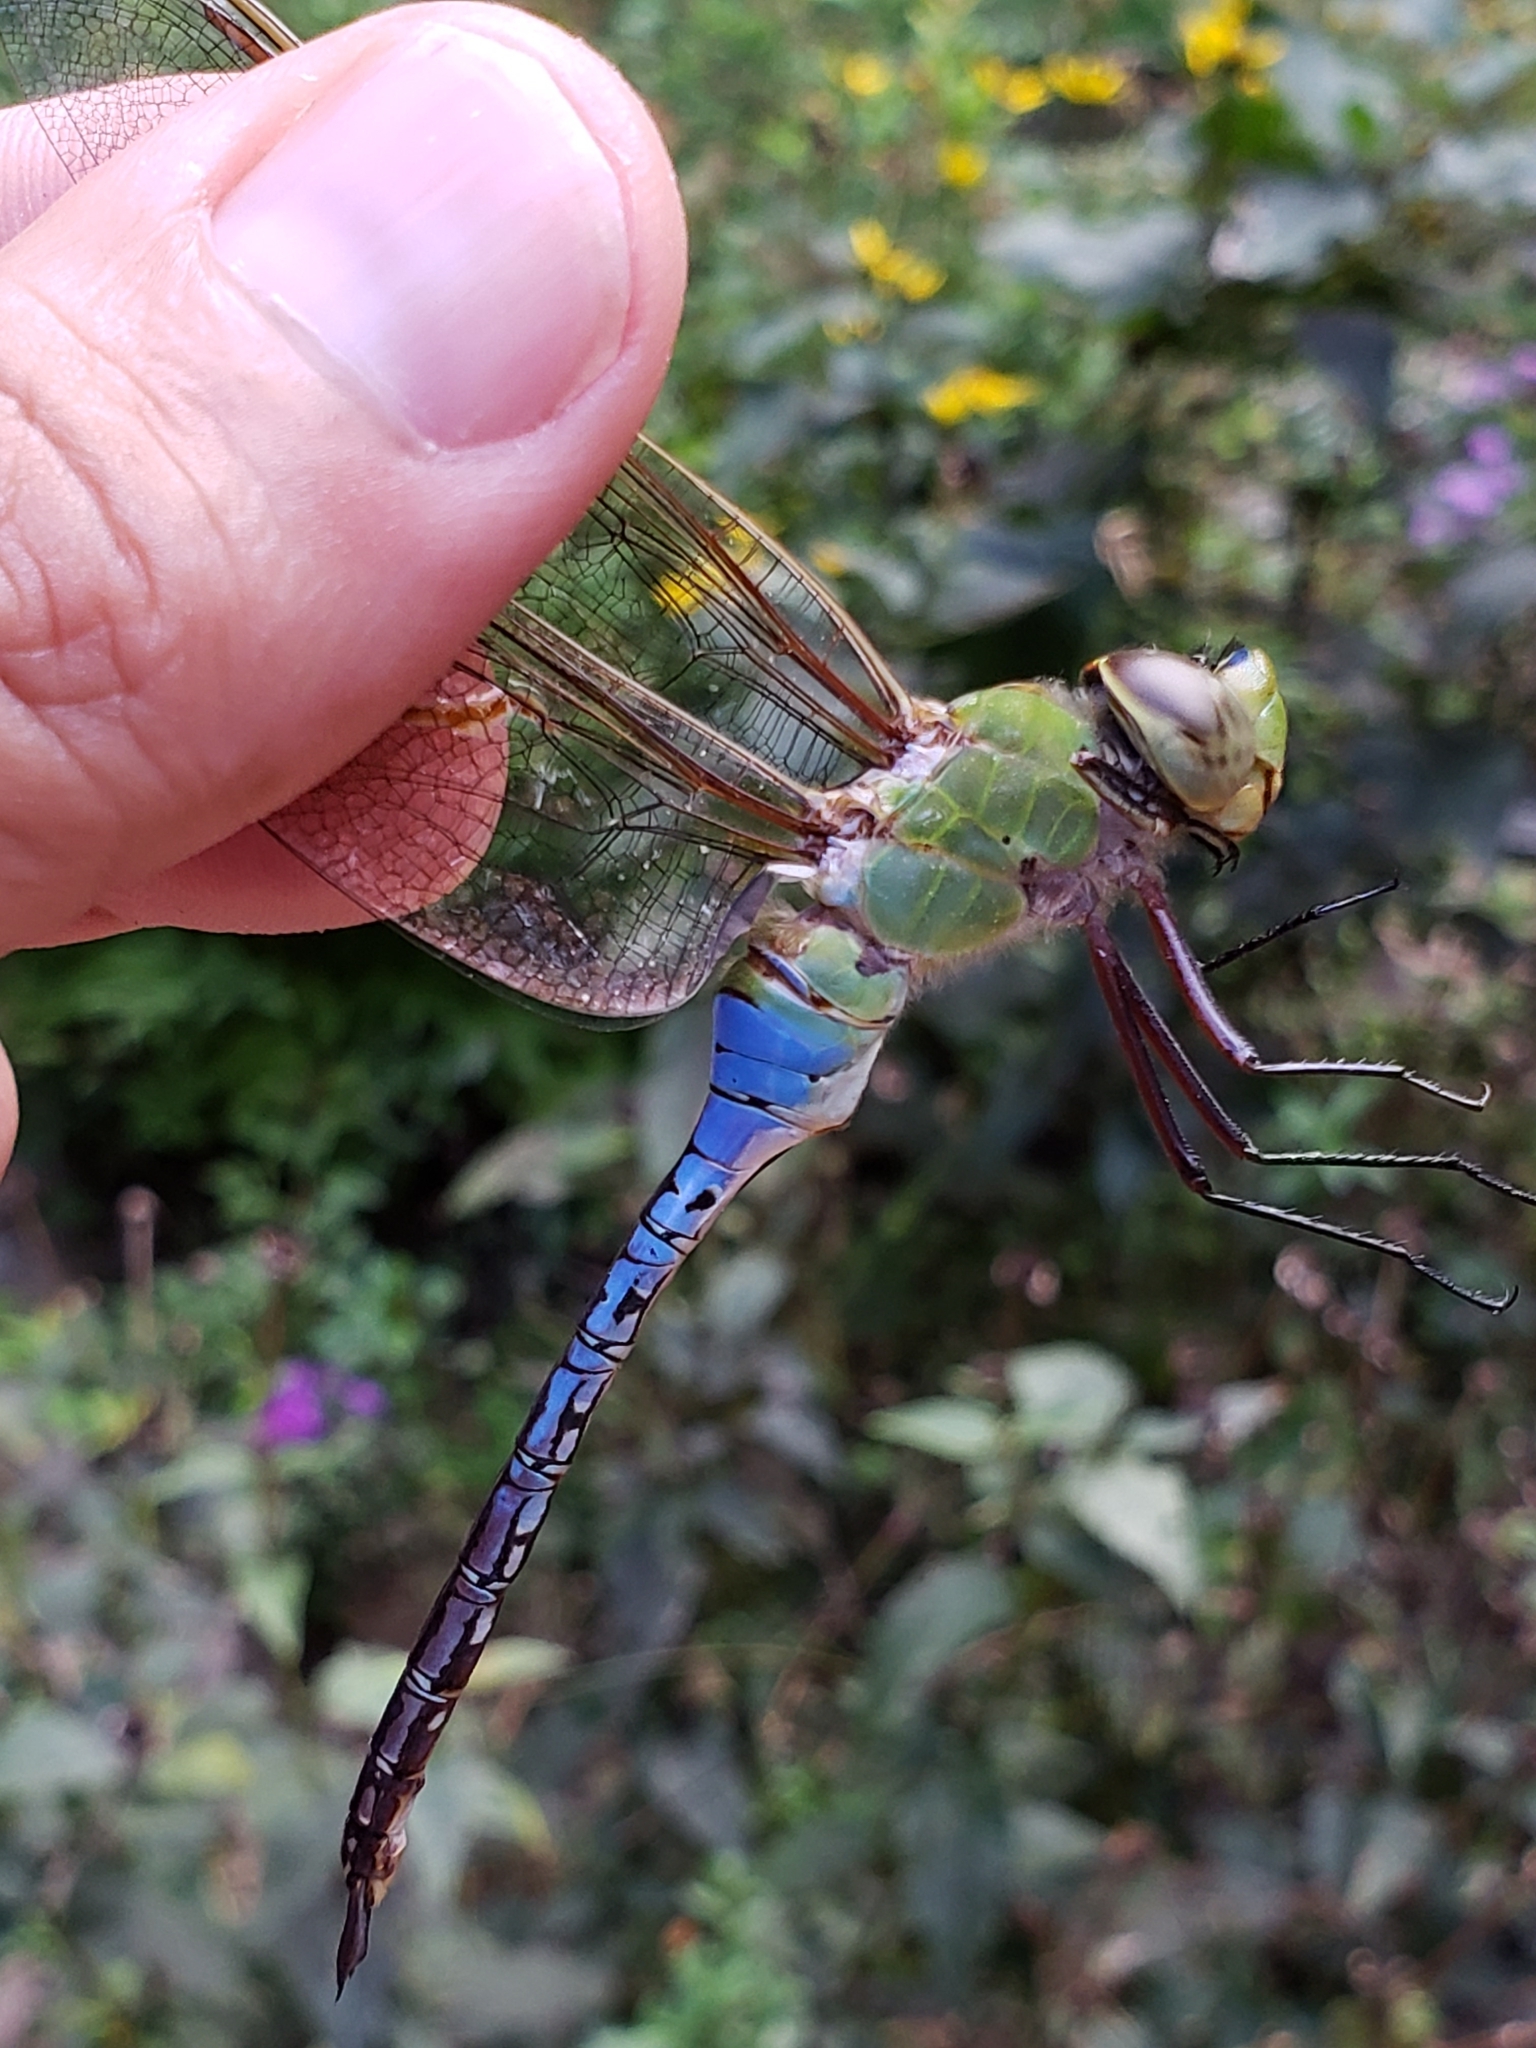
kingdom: Animalia
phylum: Arthropoda
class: Insecta
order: Odonata
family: Aeshnidae
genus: Anax
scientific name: Anax junius
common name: Common green darner
